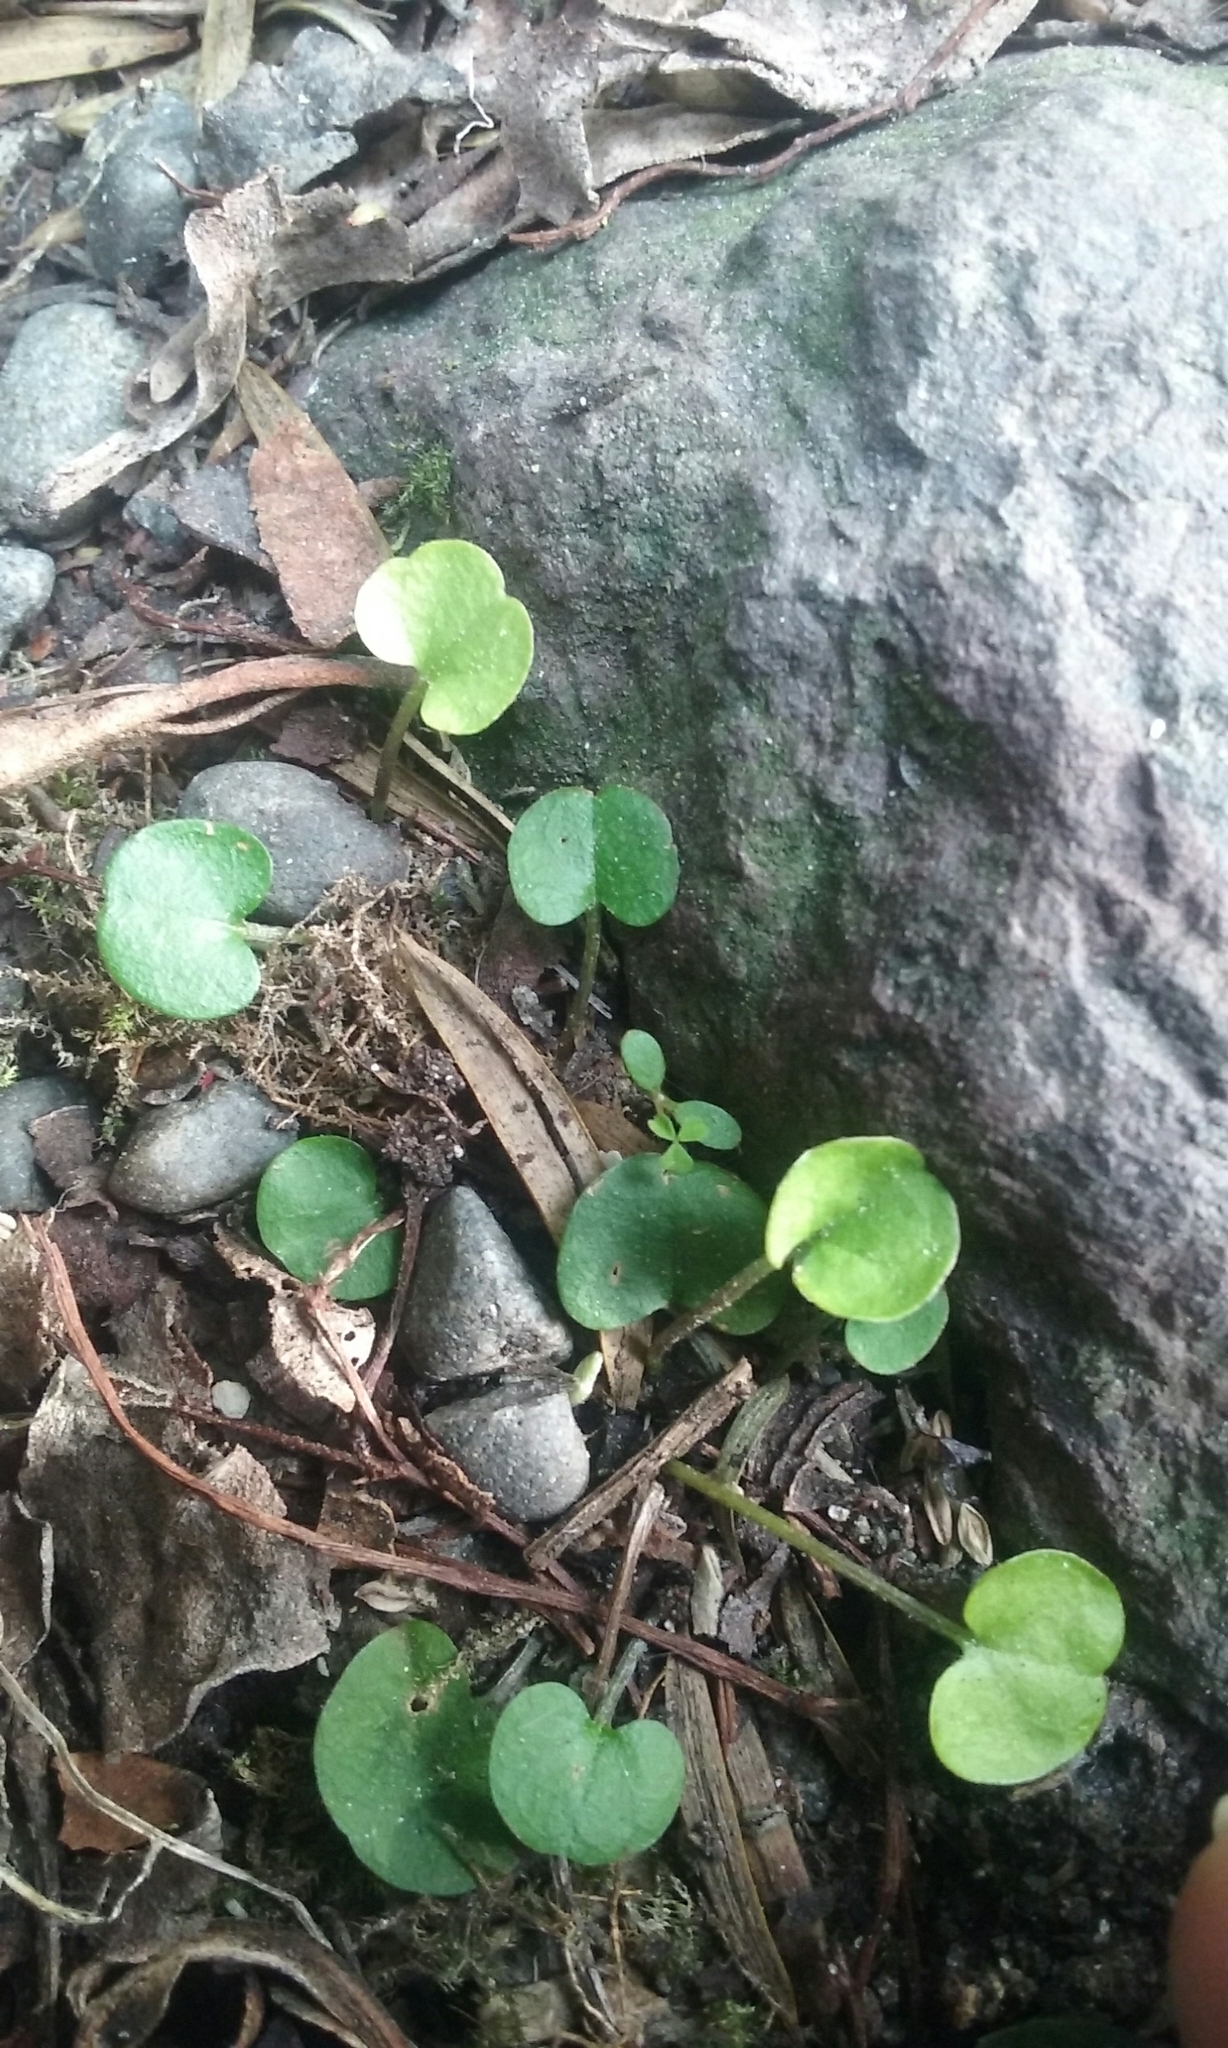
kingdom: Plantae
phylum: Tracheophyta
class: Magnoliopsida
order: Solanales
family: Convolvulaceae
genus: Dichondra
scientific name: Dichondra micrantha
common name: Kidneyweed
